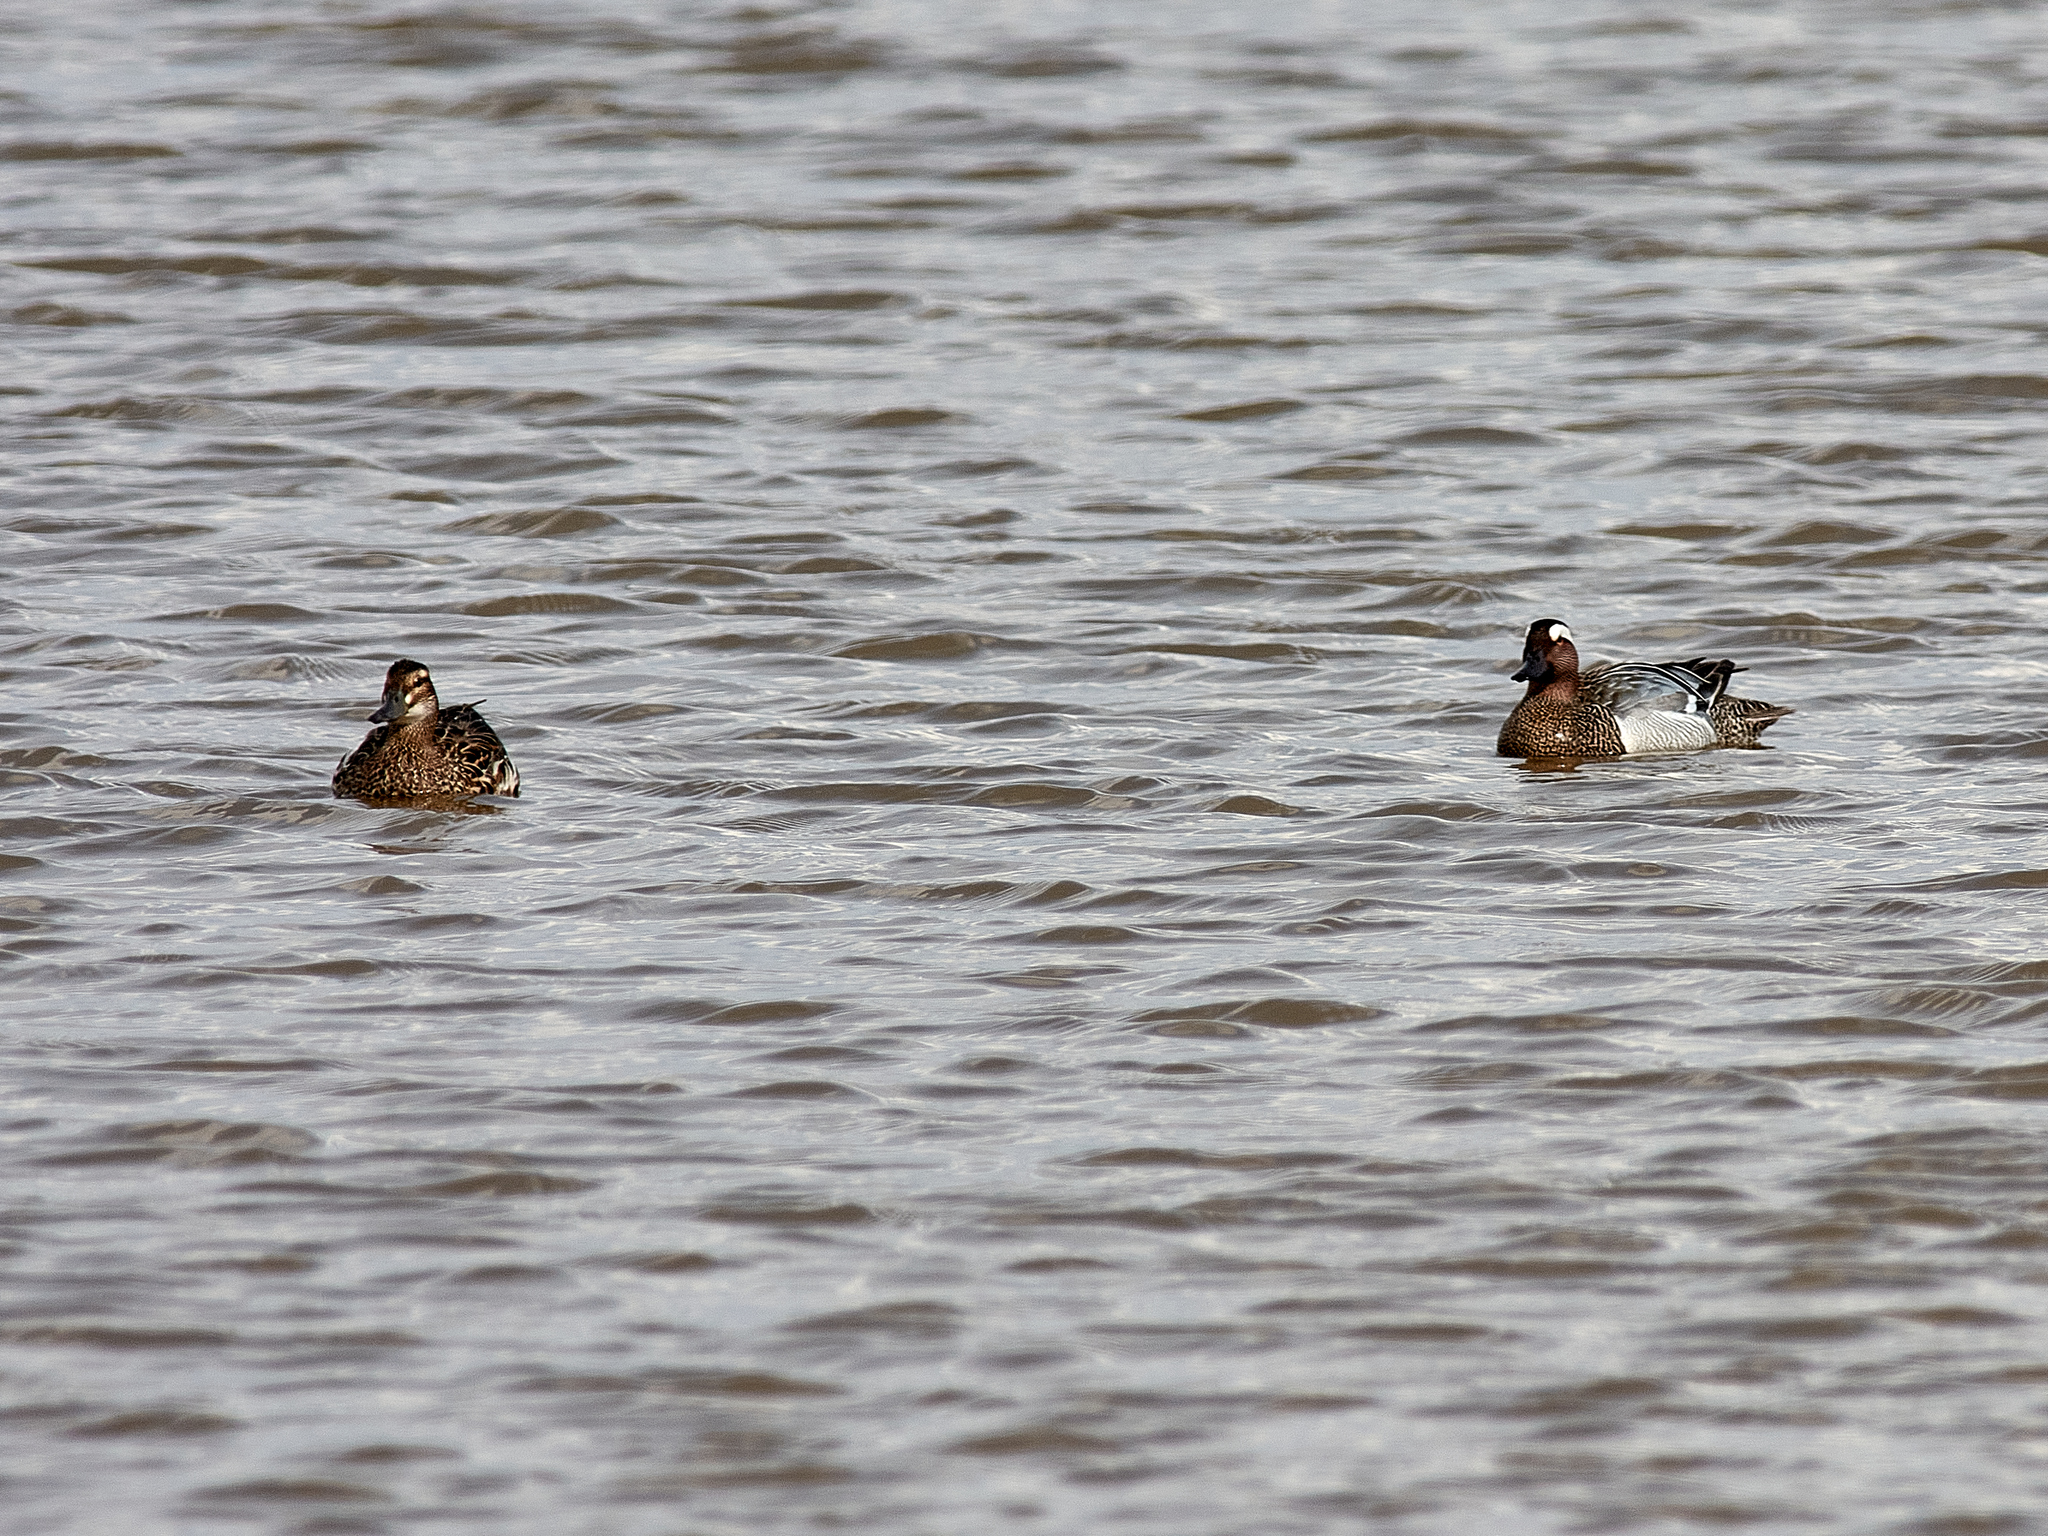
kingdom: Animalia
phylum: Chordata
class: Aves
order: Anseriformes
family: Anatidae
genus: Spatula
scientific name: Spatula querquedula
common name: Garganey
